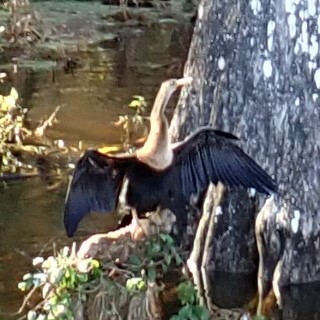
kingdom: Animalia
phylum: Chordata
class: Aves
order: Suliformes
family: Anhingidae
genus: Anhinga
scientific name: Anhinga anhinga
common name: Anhinga
